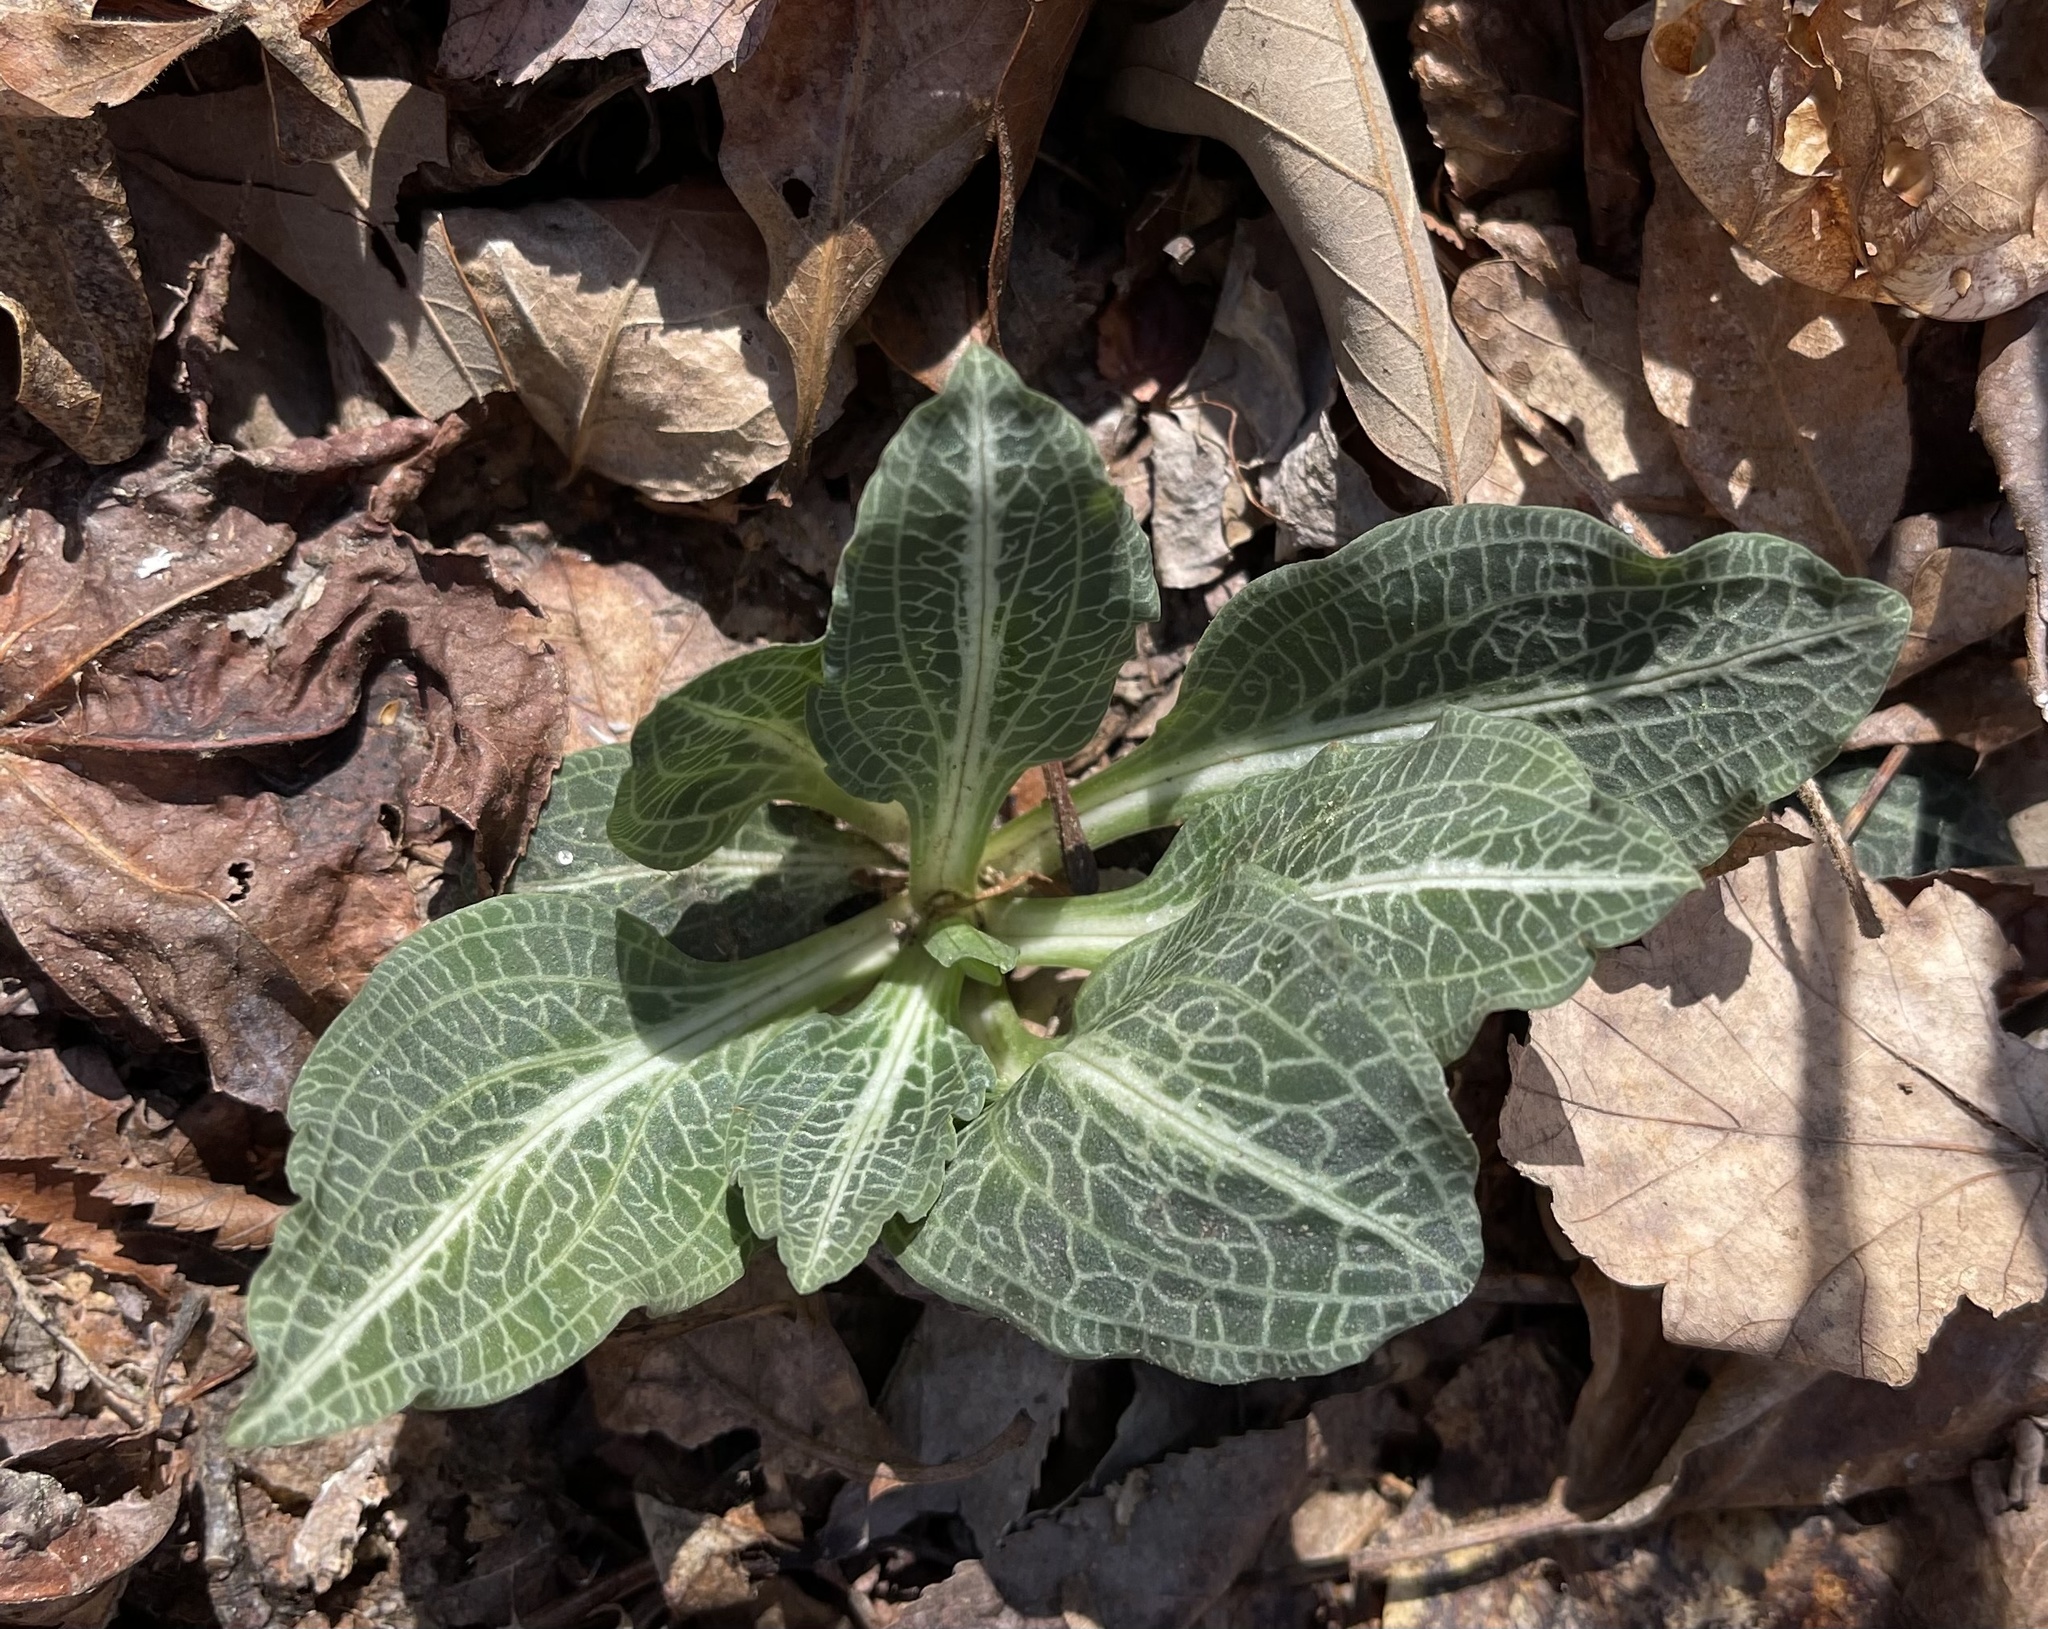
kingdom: Plantae
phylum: Tracheophyta
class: Liliopsida
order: Asparagales
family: Orchidaceae
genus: Goodyera
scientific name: Goodyera pubescens
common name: Downy rattlesnake-plantain
